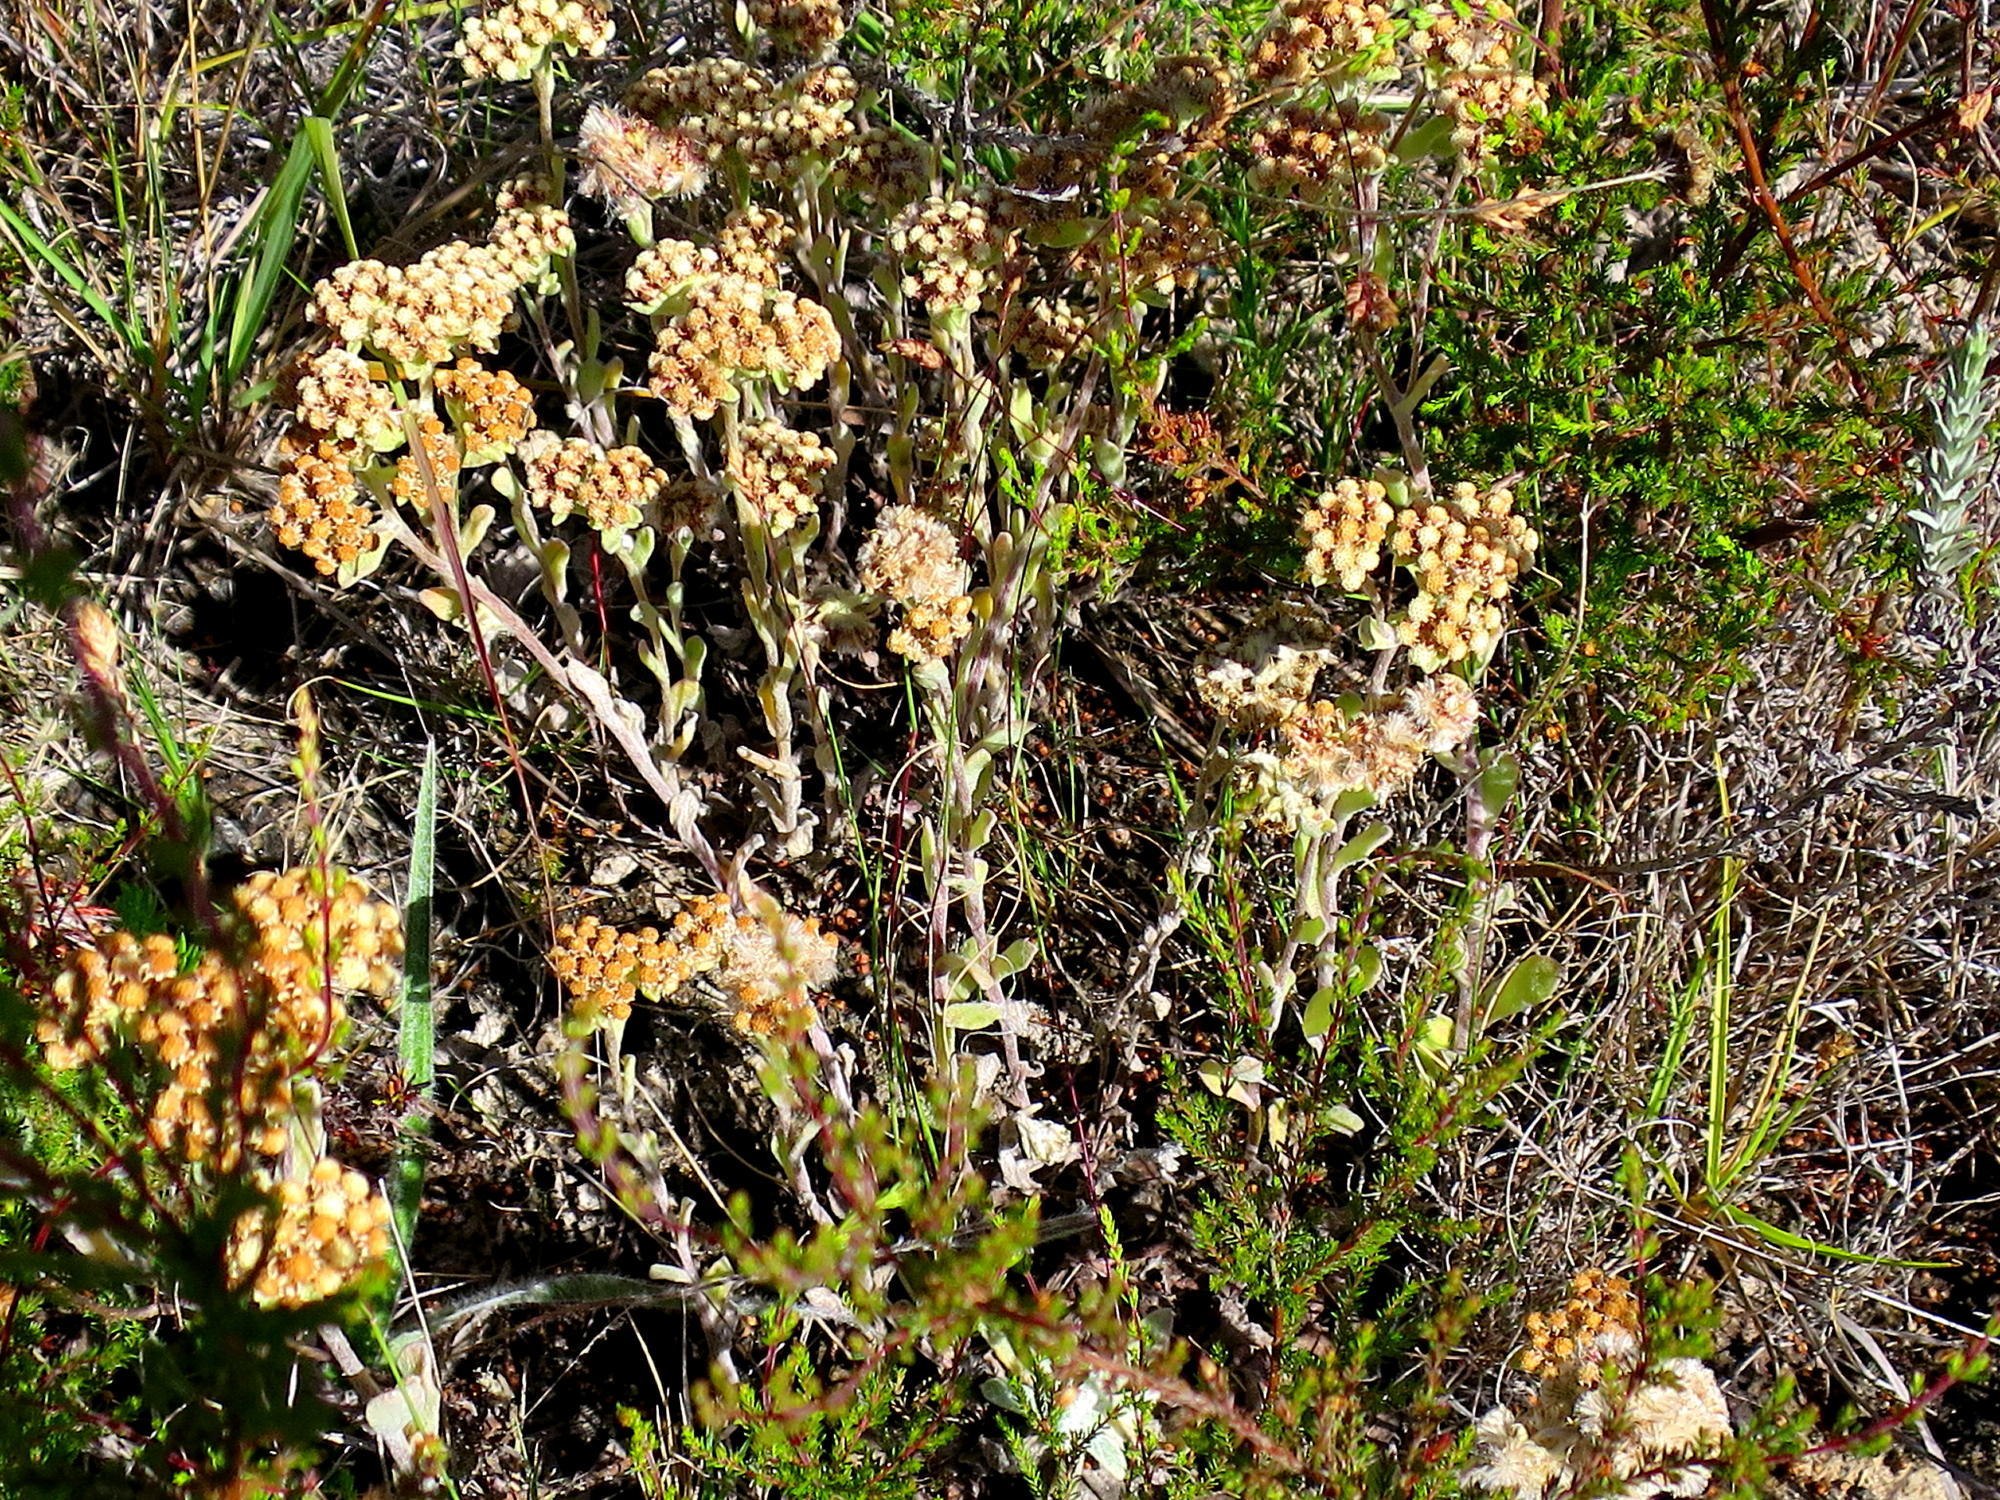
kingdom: Plantae
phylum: Tracheophyta
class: Magnoliopsida
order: Asterales
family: Asteraceae
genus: Helichrysum
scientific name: Helichrysum spiralepis
